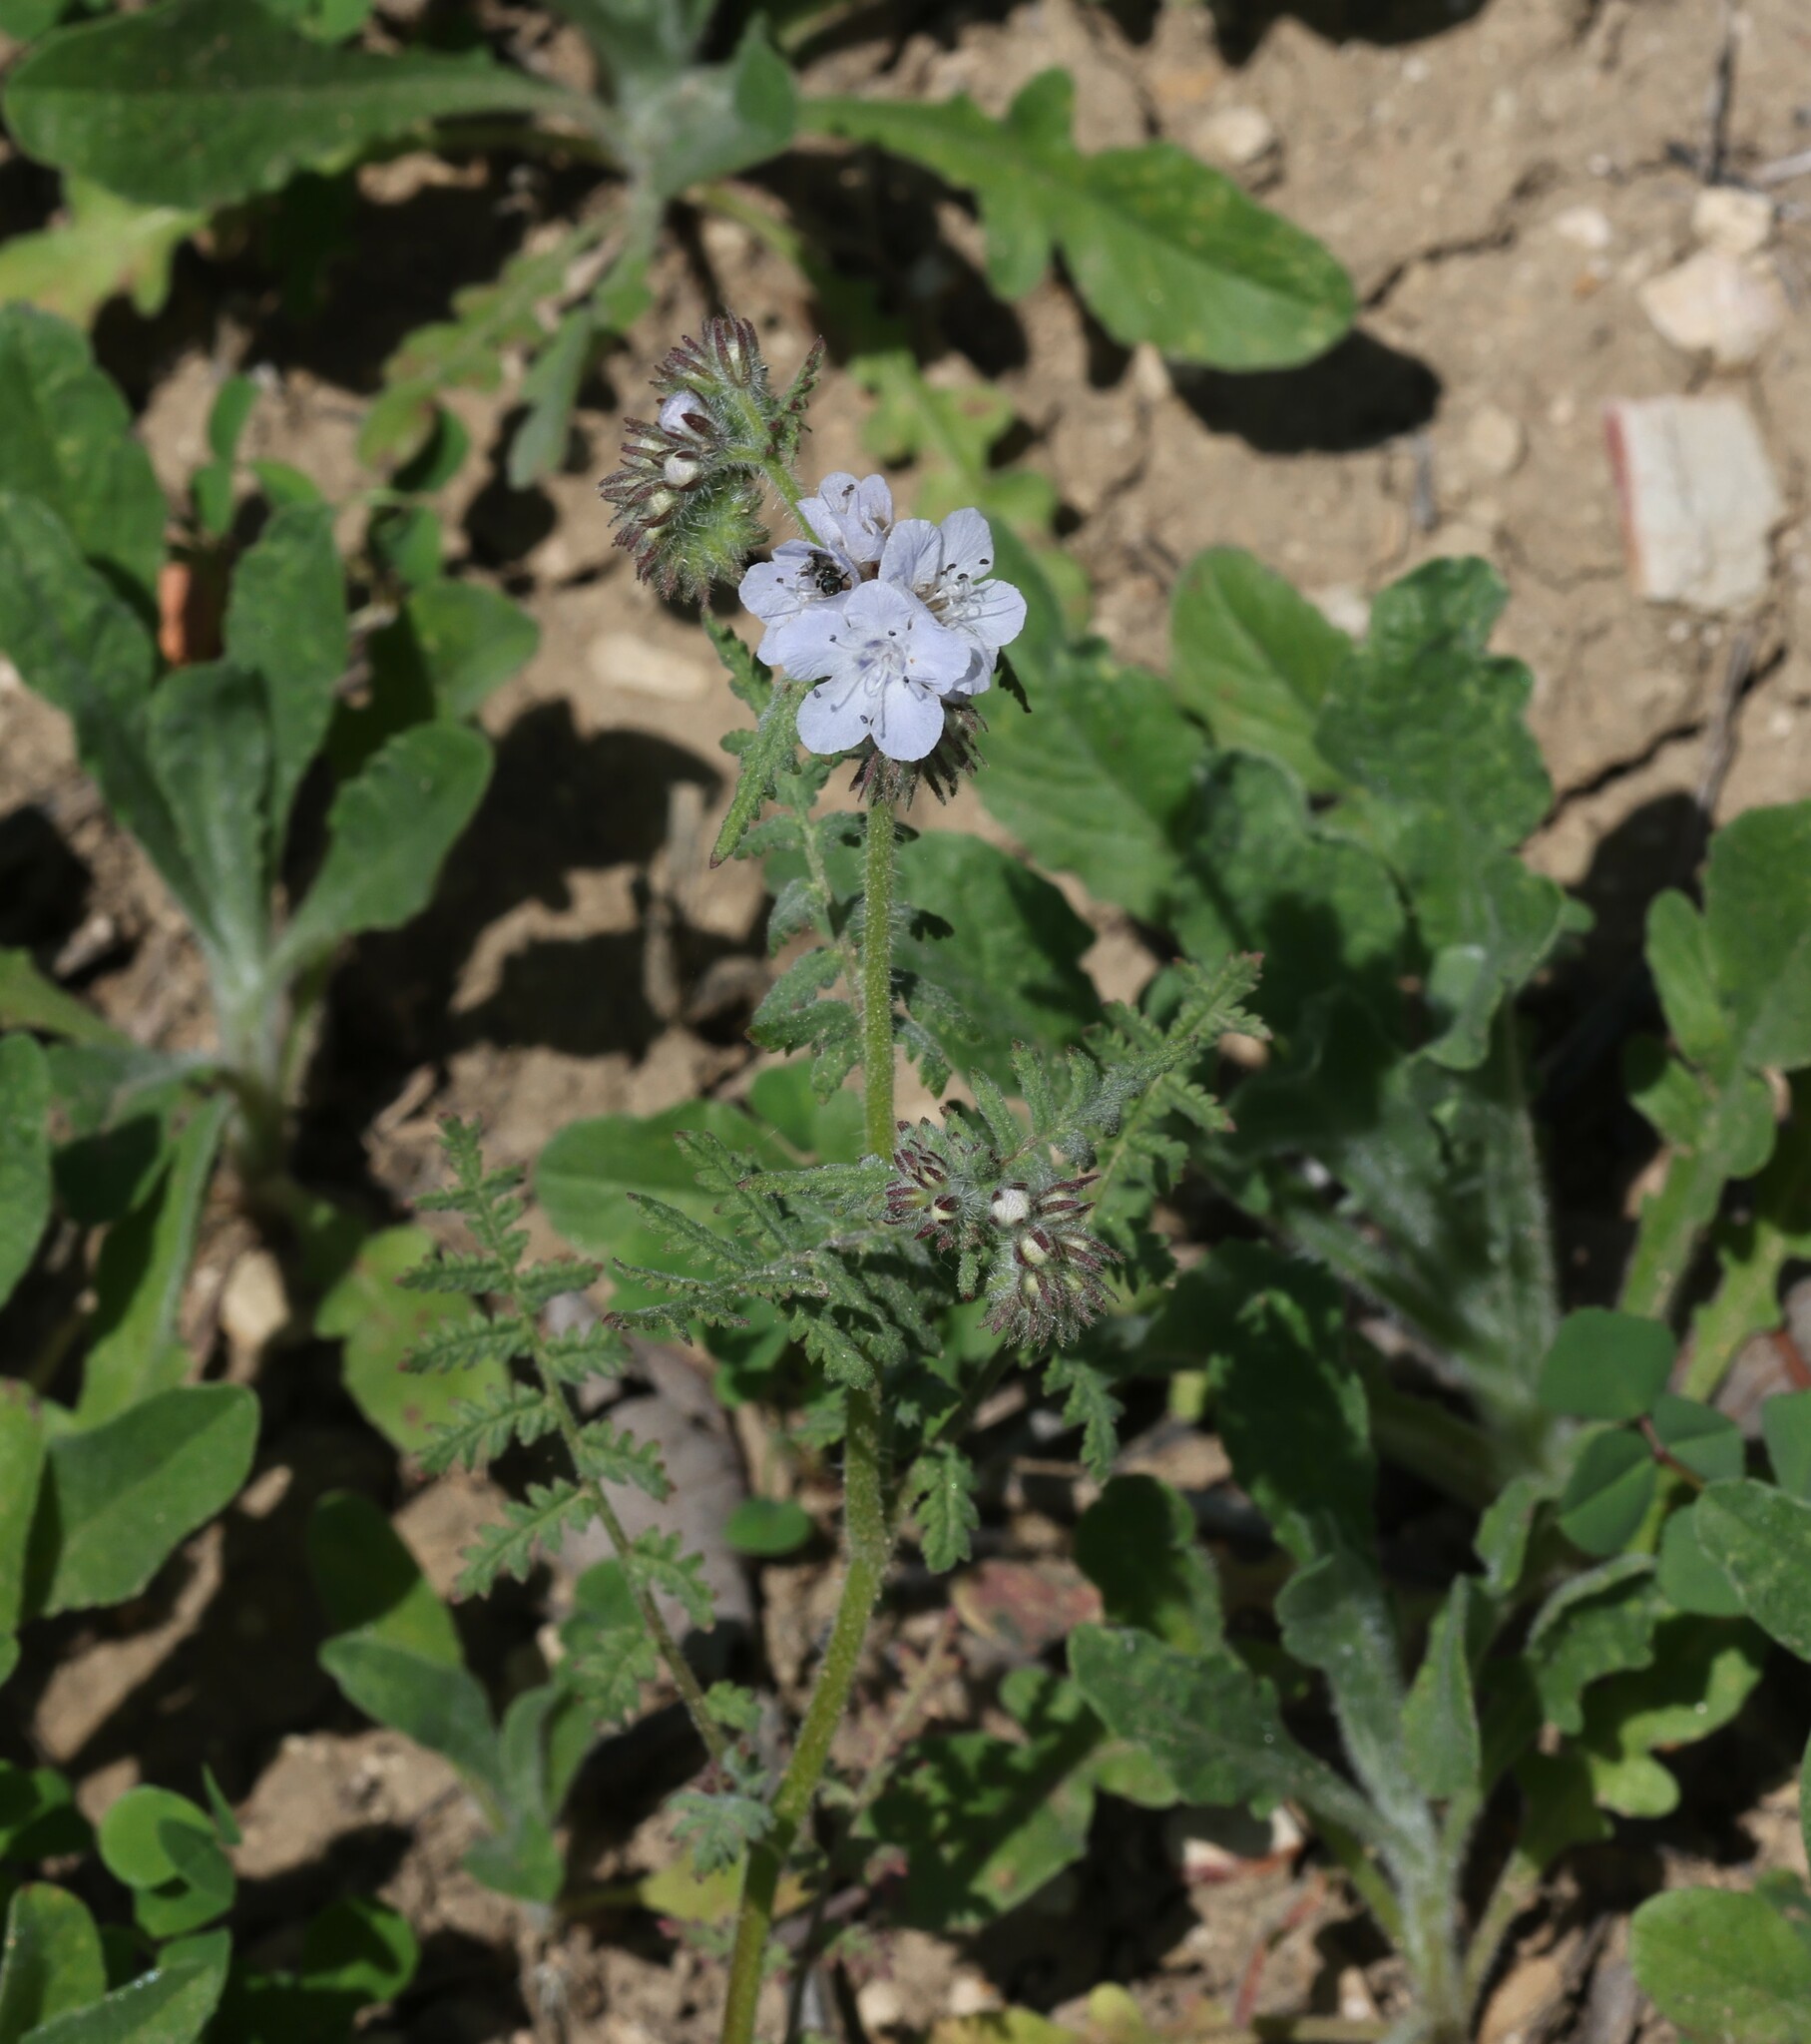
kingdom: Plantae
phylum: Tracheophyta
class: Magnoliopsida
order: Boraginales
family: Hydrophyllaceae
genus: Phacelia
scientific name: Phacelia distans
